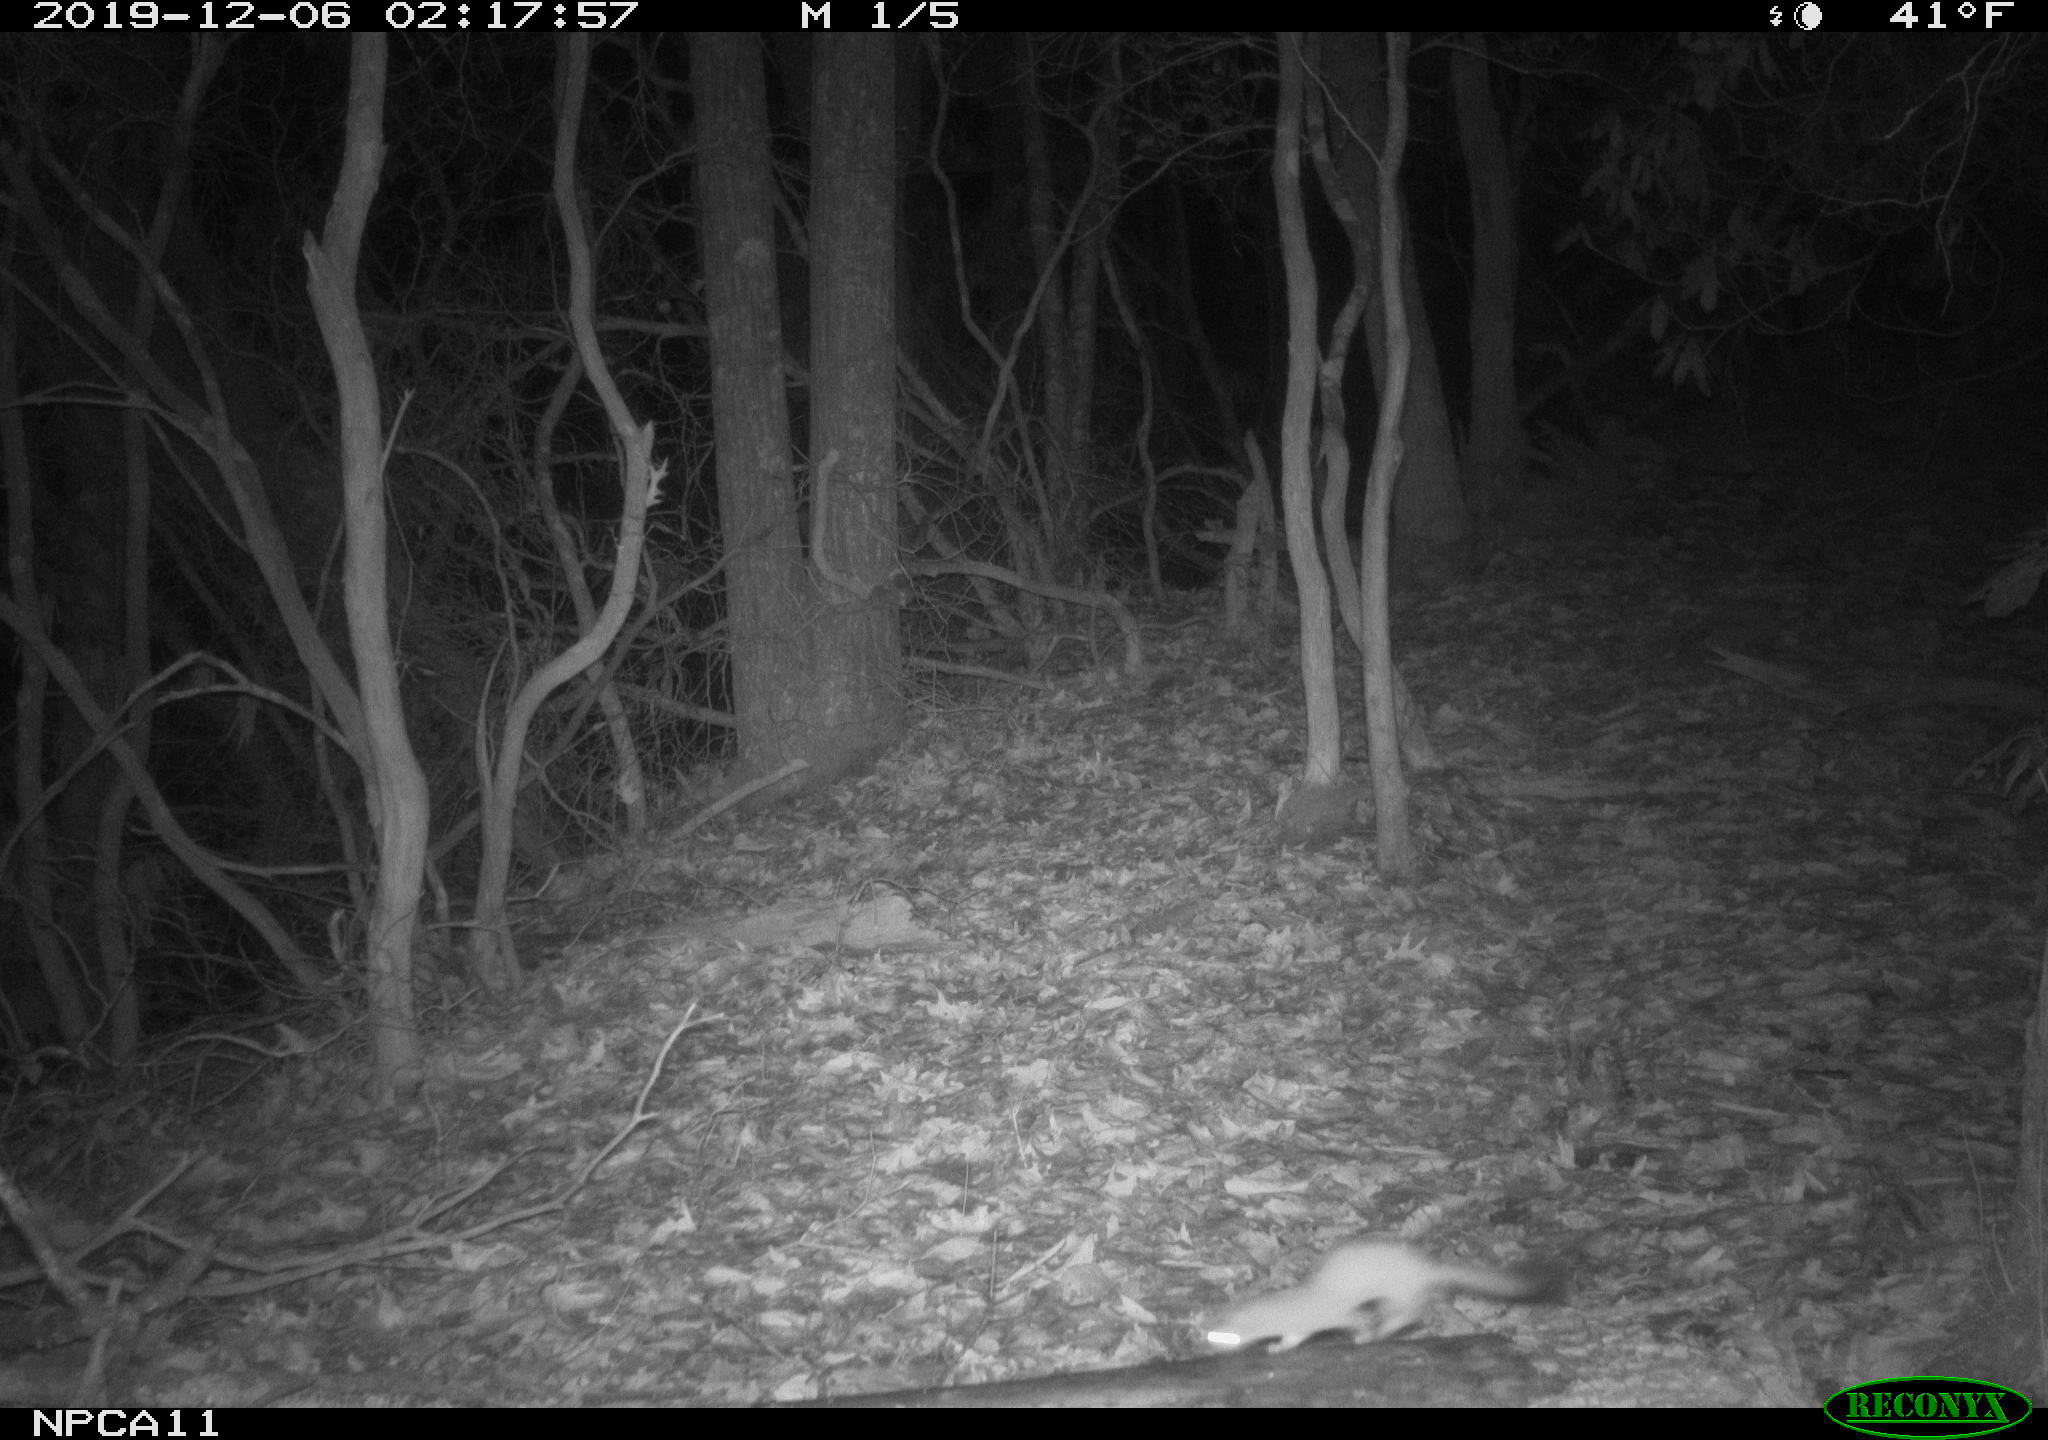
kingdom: Animalia
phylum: Chordata
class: Mammalia
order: Carnivora
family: Mustelidae
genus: Mustela
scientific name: Mustela
